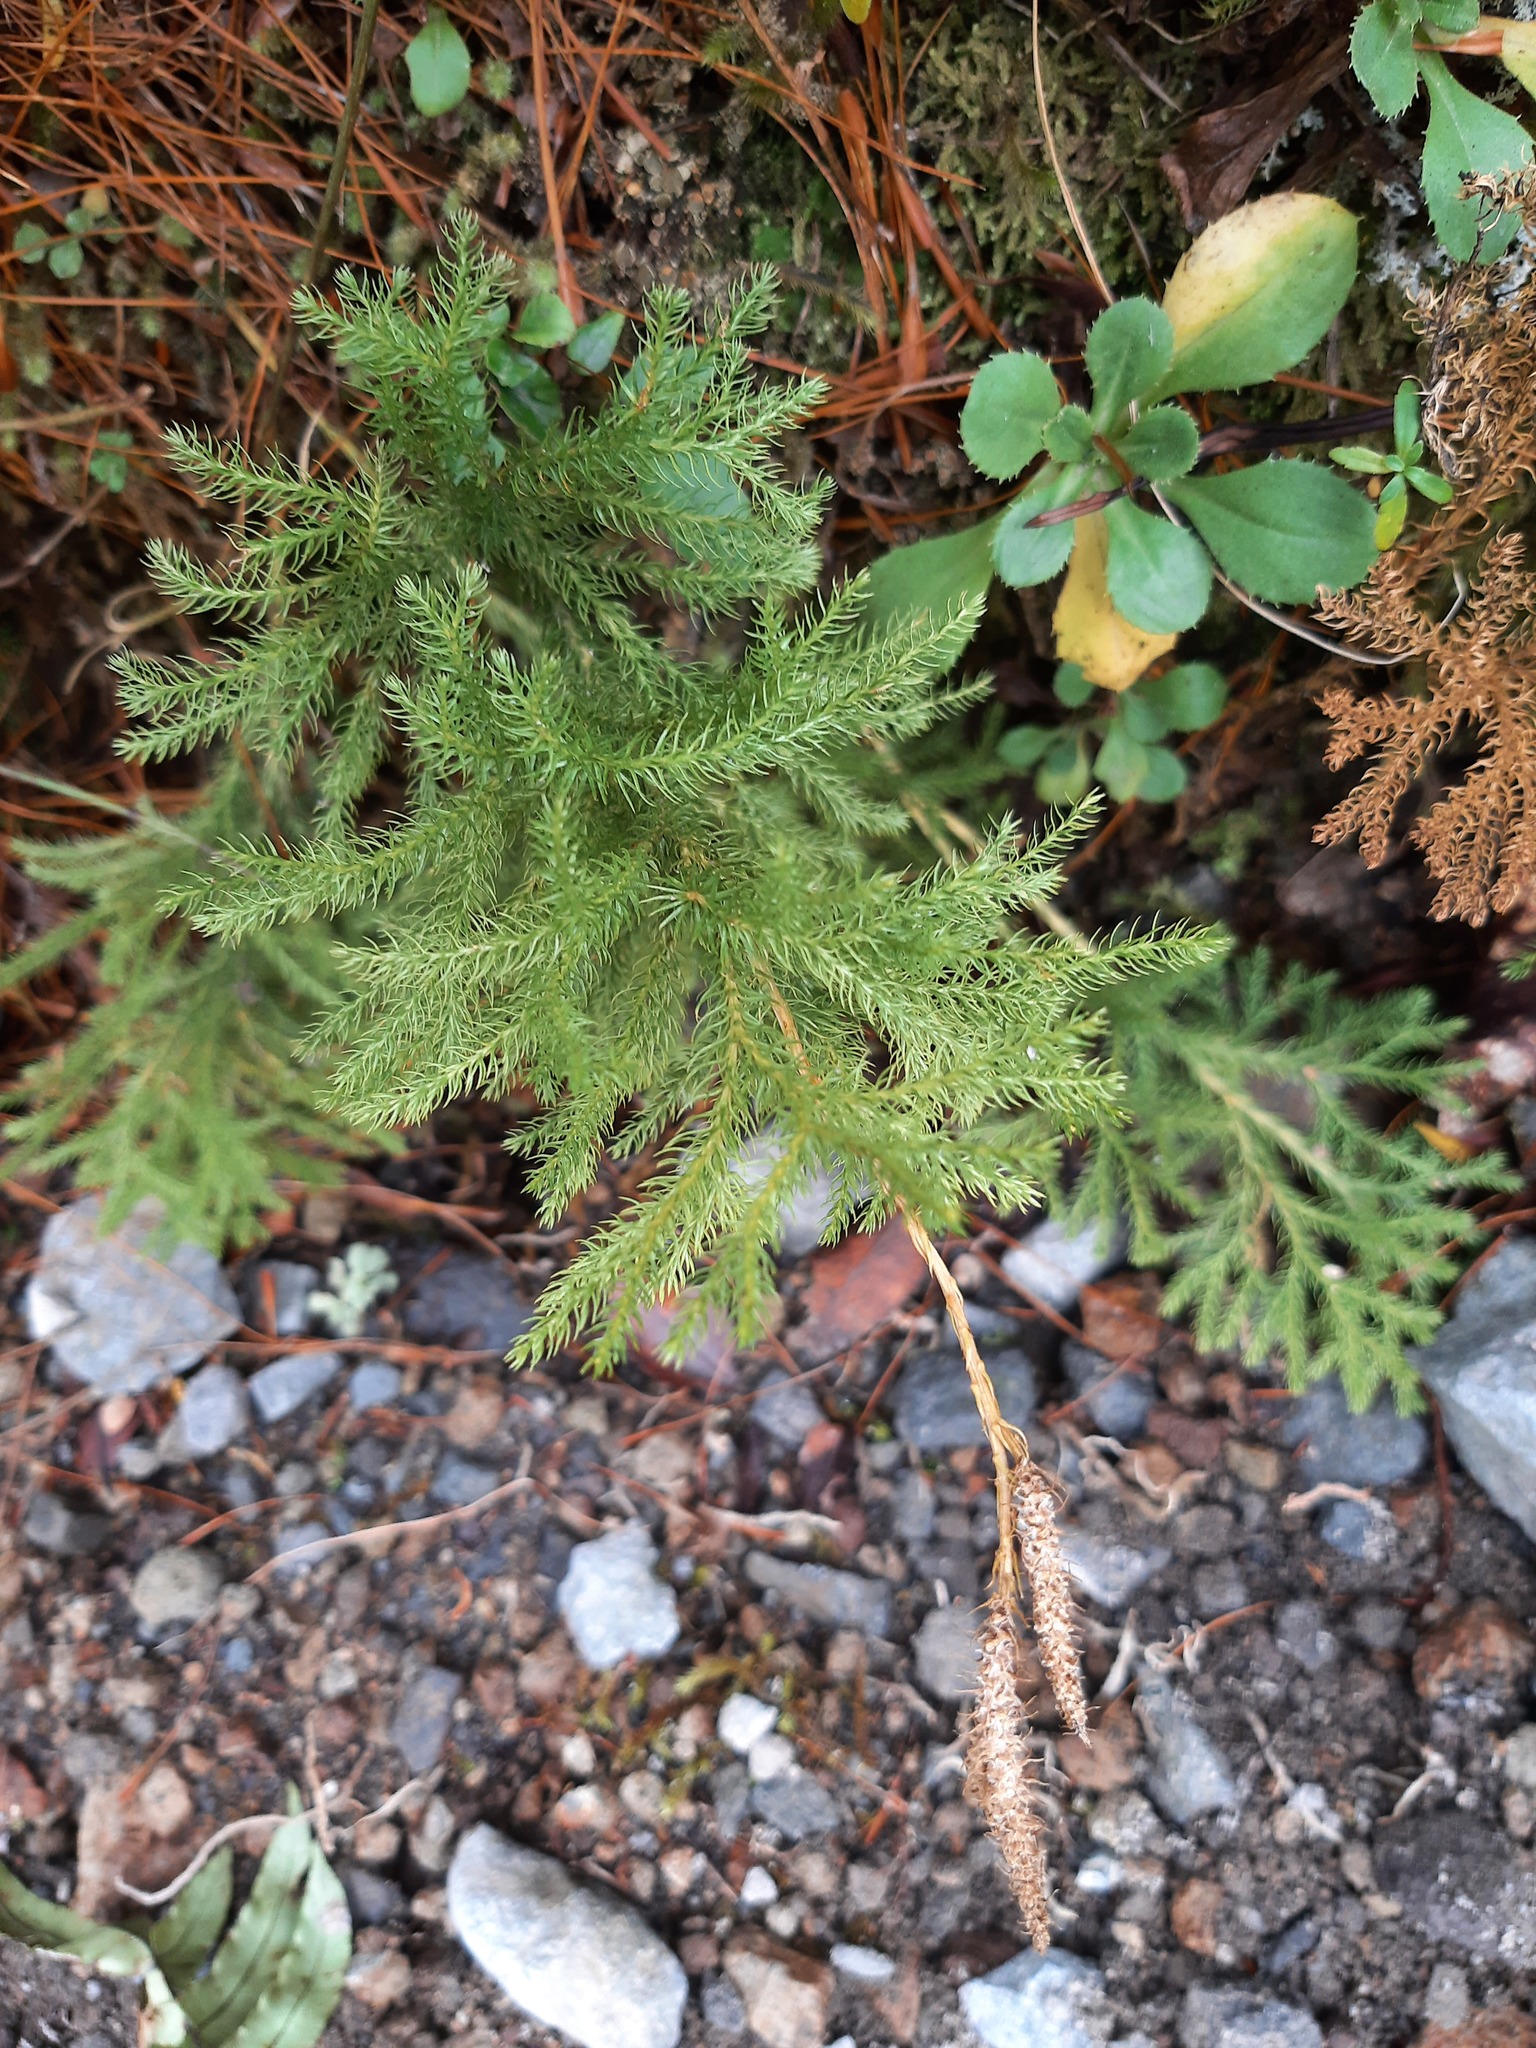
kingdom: Plantae
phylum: Tracheophyta
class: Lycopodiopsida
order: Lycopodiales
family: Lycopodiaceae
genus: Austrolycopodium
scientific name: Austrolycopodium fastigiatum
